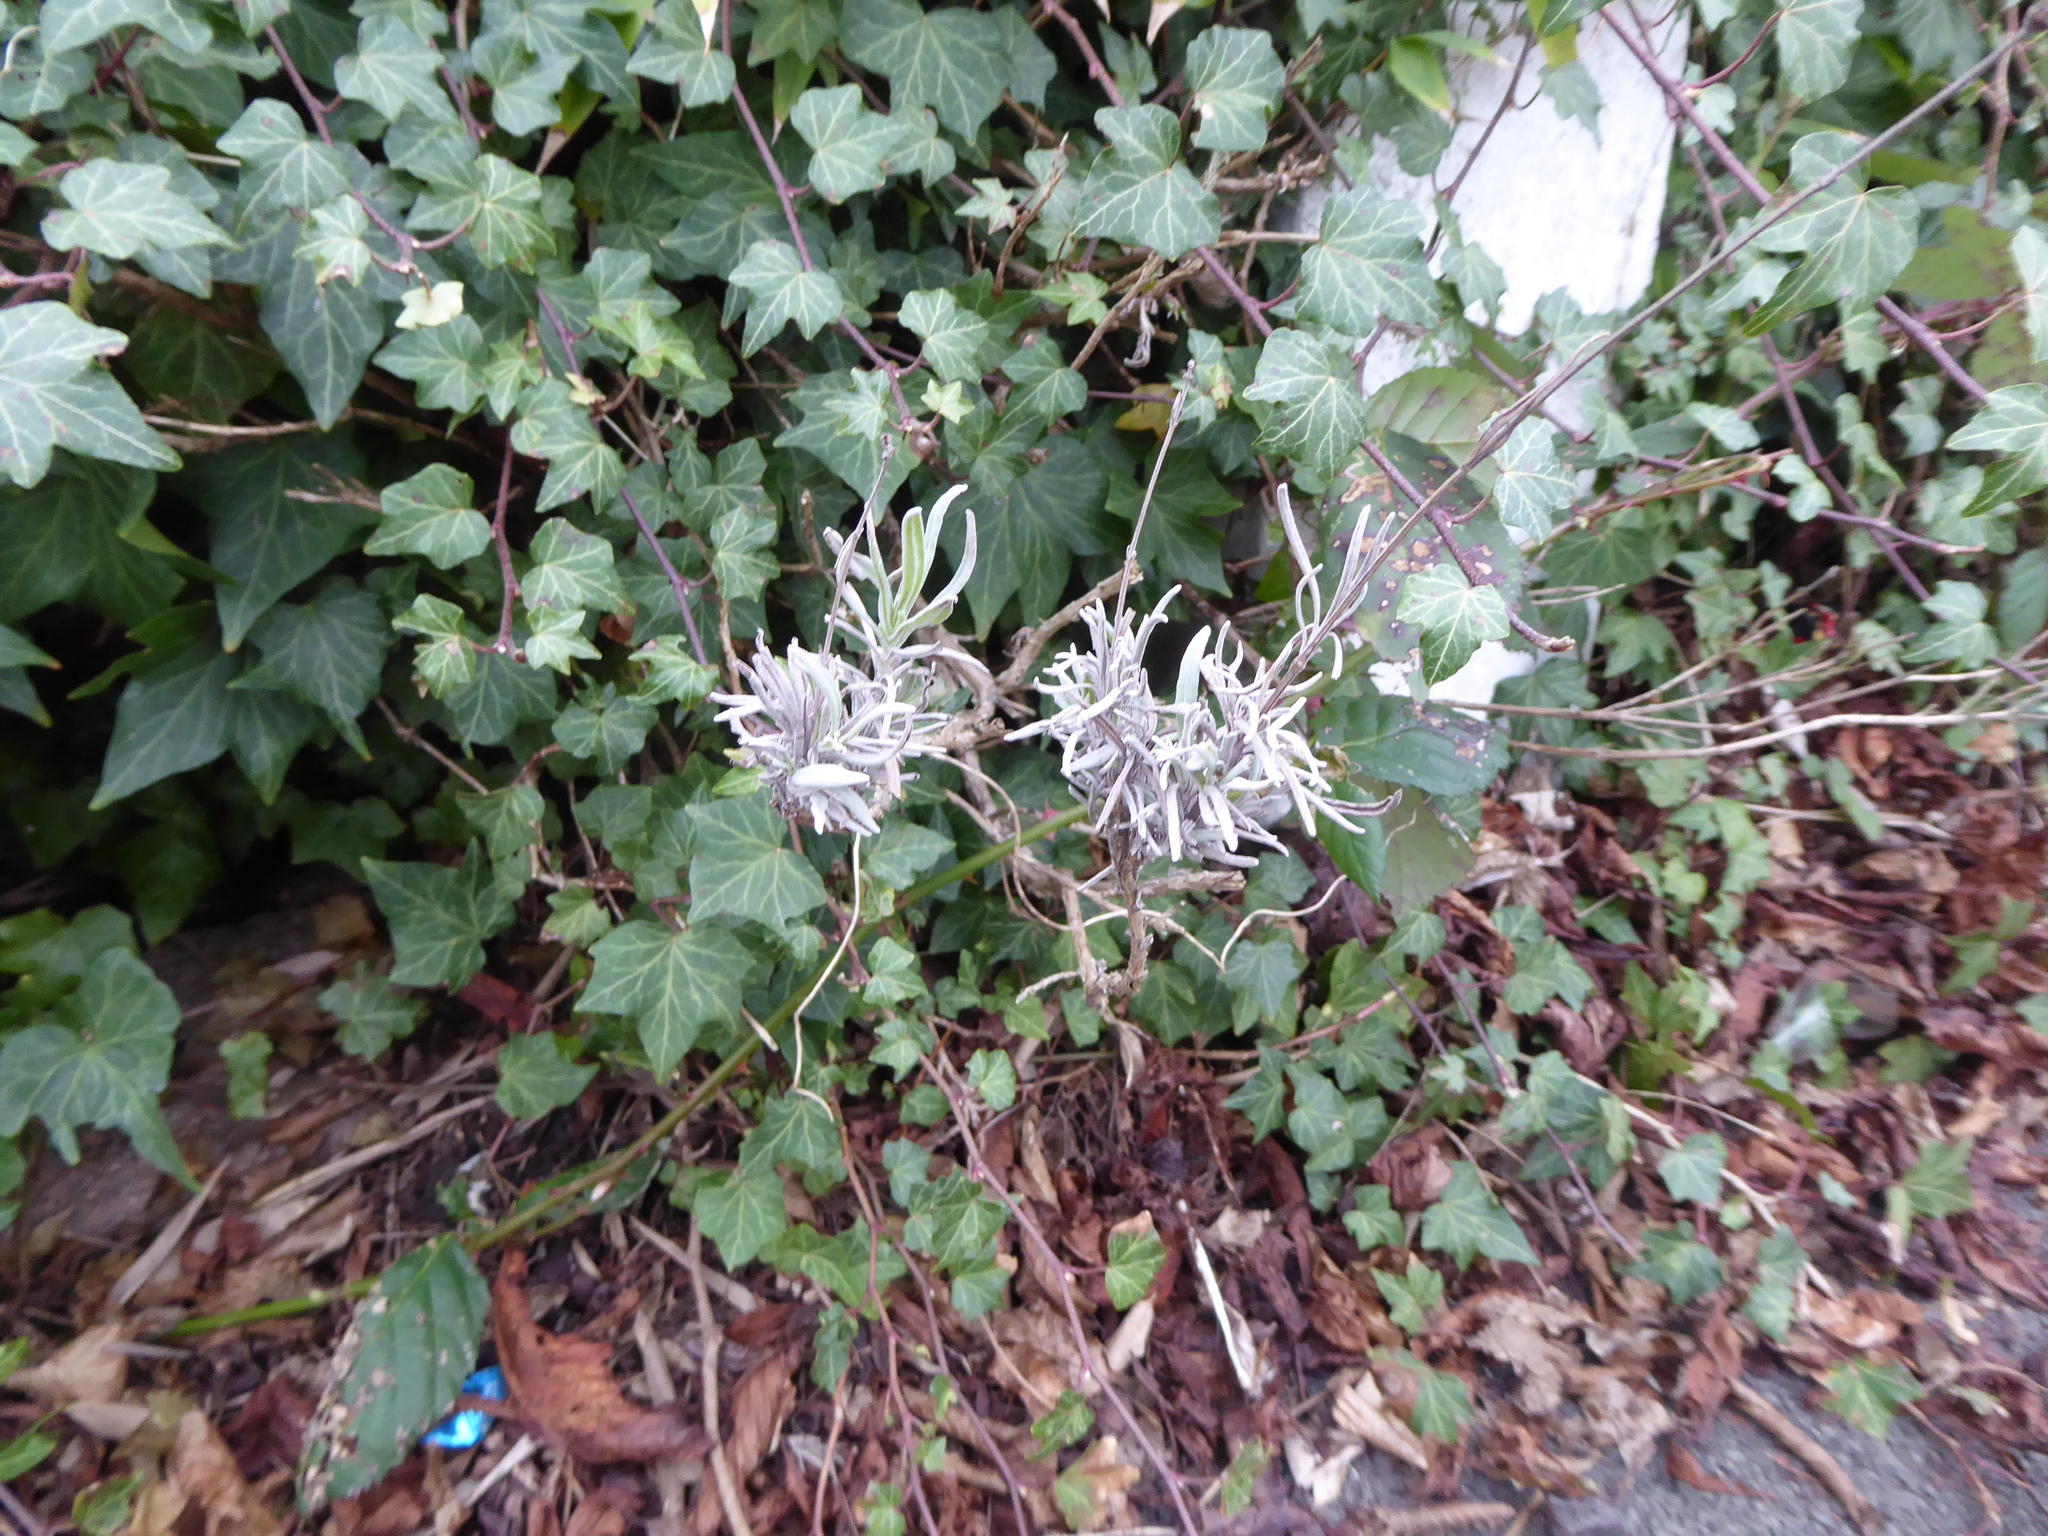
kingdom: Plantae
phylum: Tracheophyta
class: Magnoliopsida
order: Lamiales
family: Lamiaceae
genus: Lavandula
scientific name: Lavandula angustifolia
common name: Garden lavender
